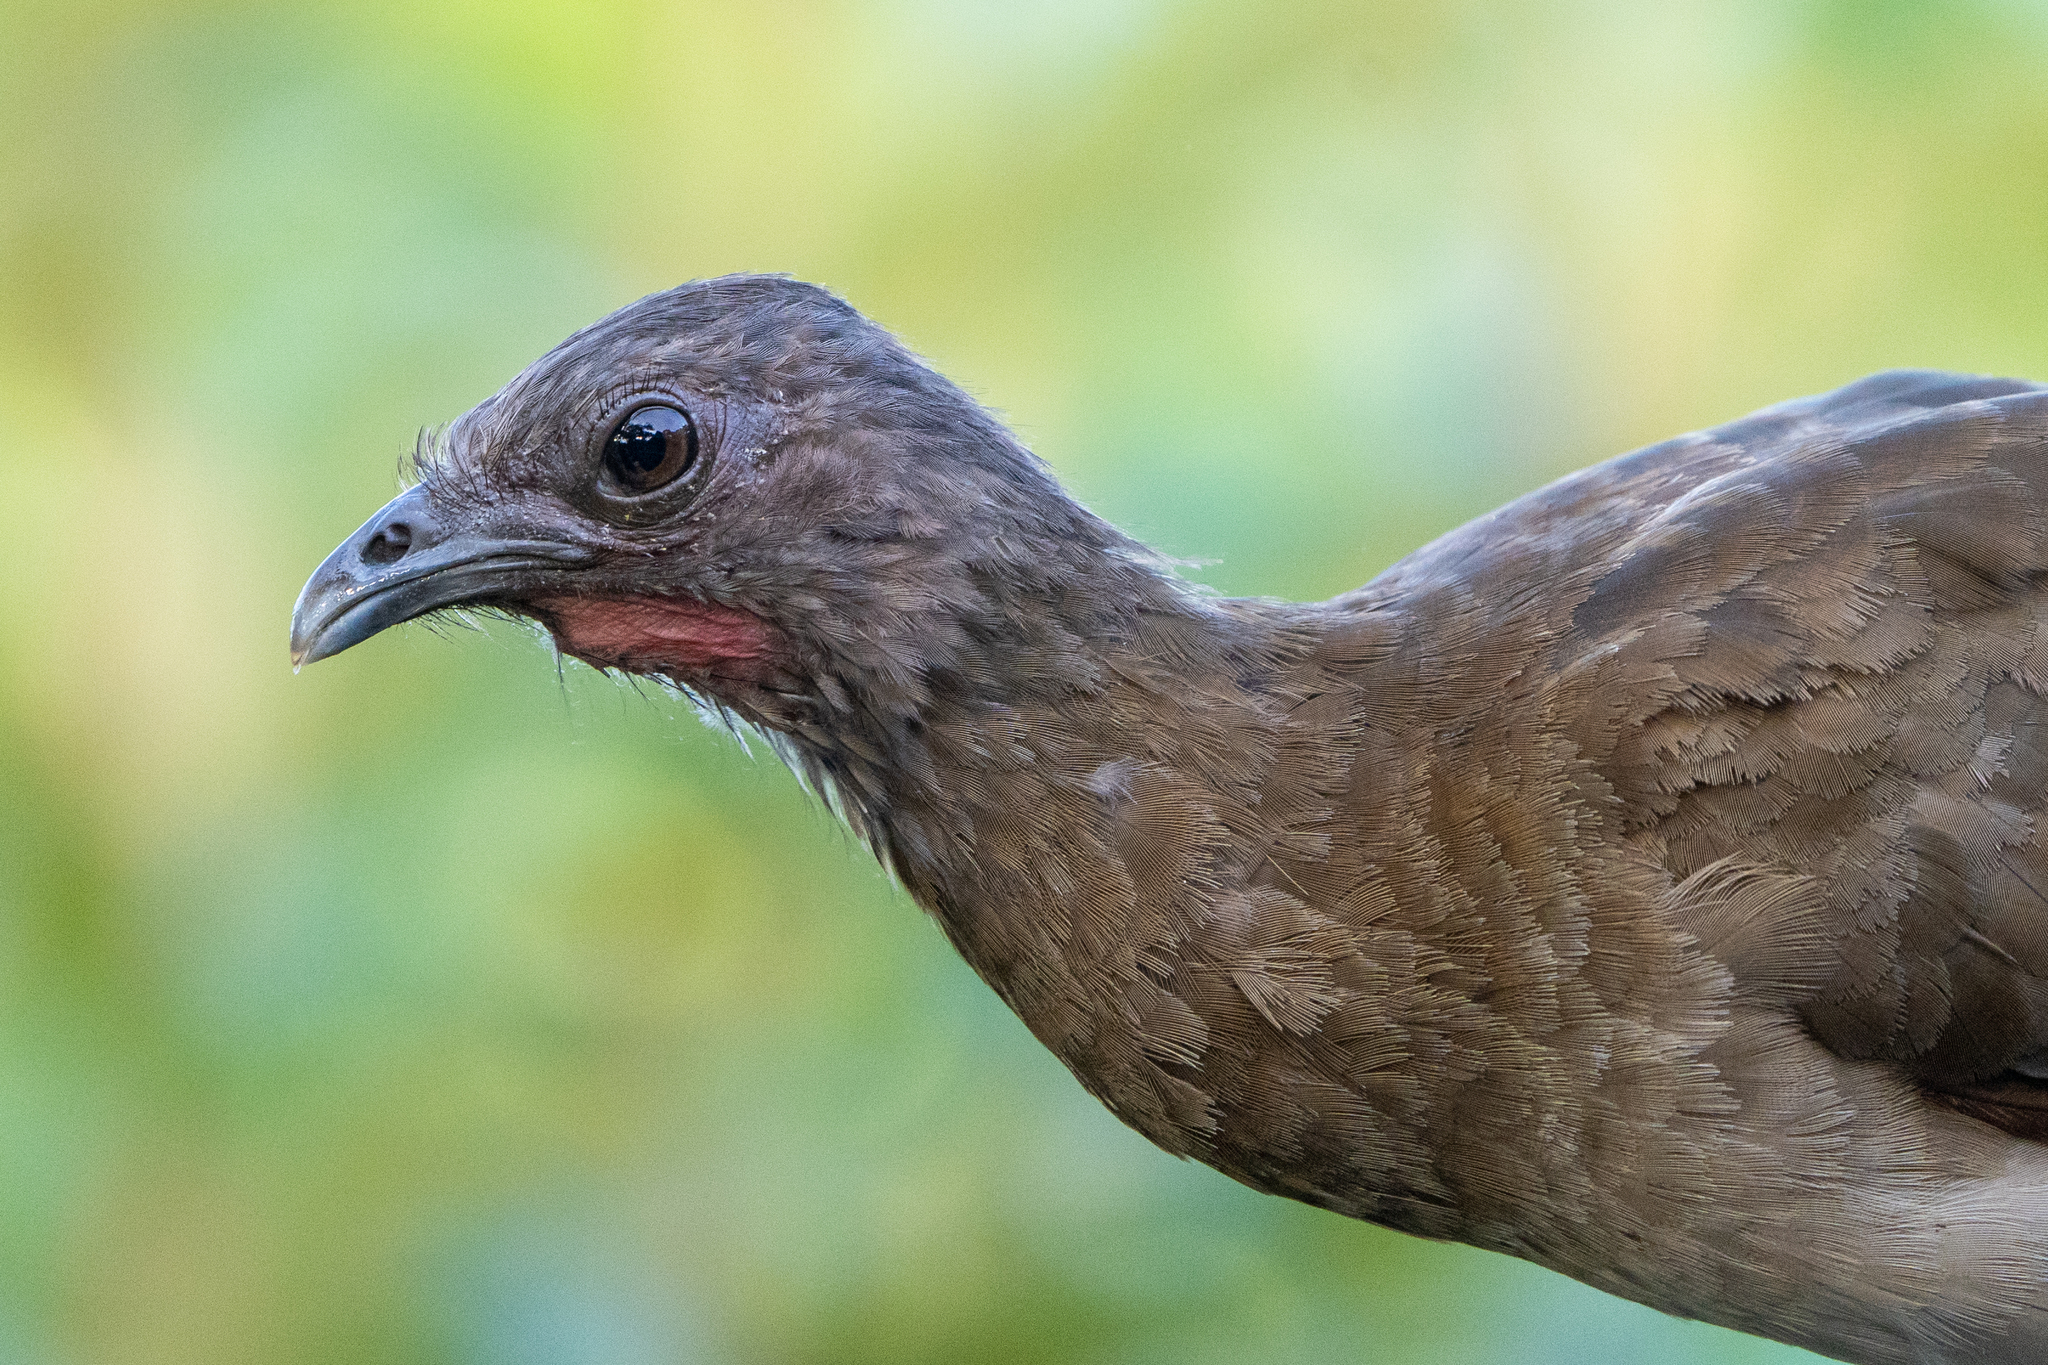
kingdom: Animalia
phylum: Chordata
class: Aves
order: Galliformes
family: Cracidae
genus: Ortalis
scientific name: Ortalis cinereiceps
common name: Grey-headed chachalaca
